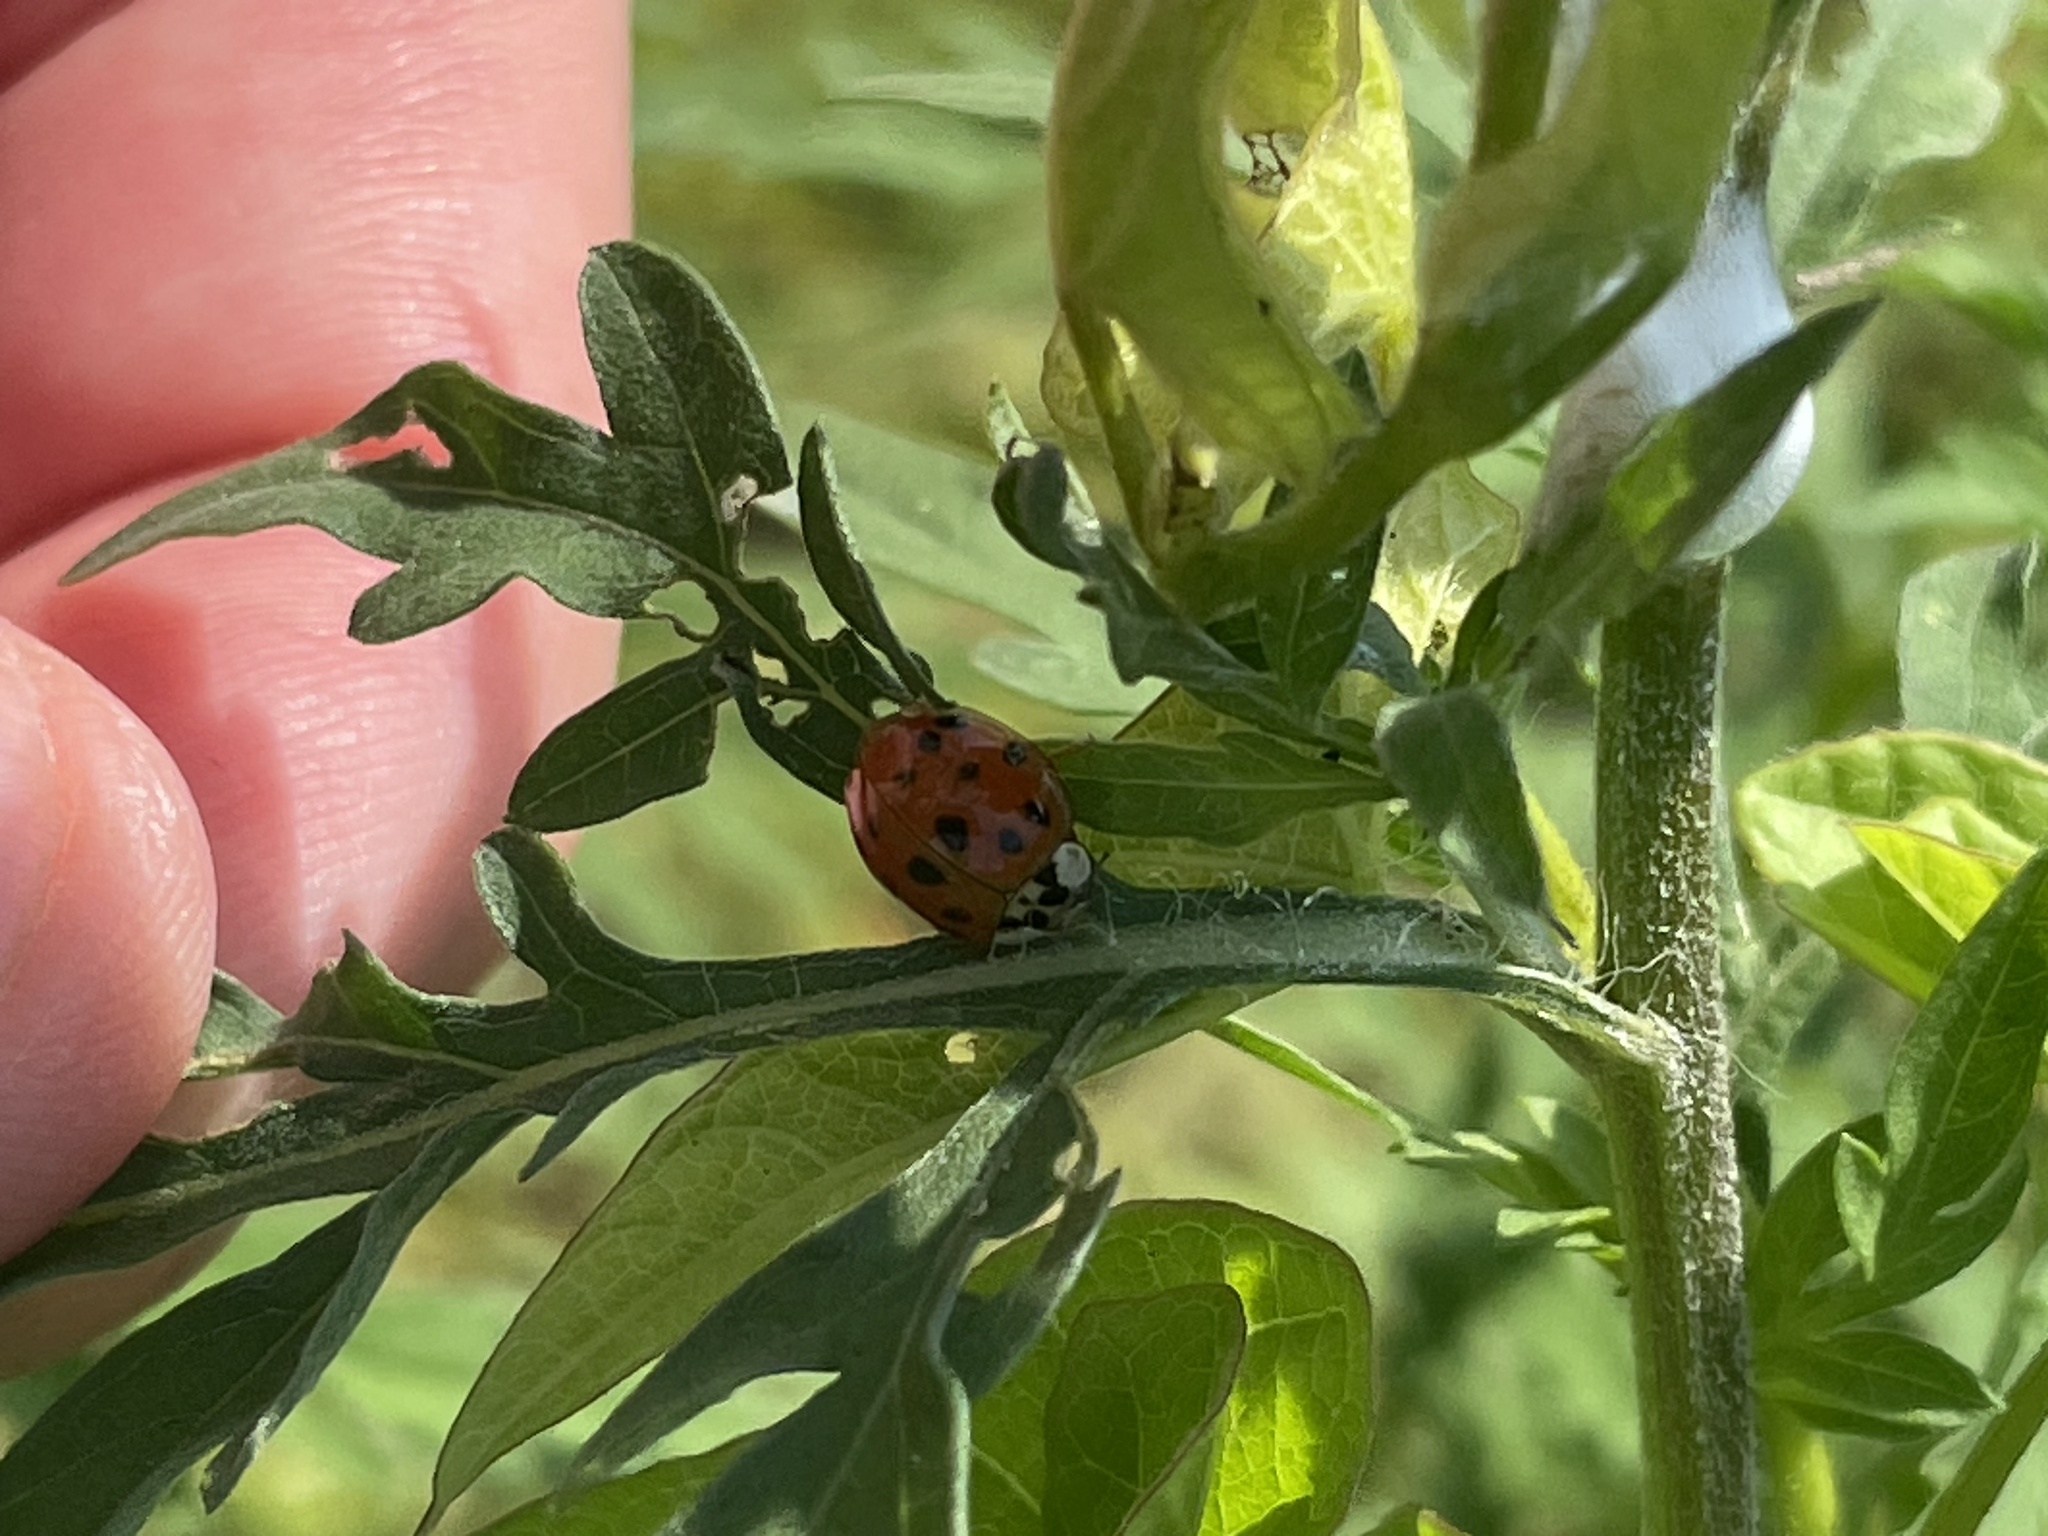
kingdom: Animalia
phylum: Arthropoda
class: Insecta
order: Coleoptera
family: Coccinellidae
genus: Harmonia
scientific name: Harmonia axyridis
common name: Harlequin ladybird
